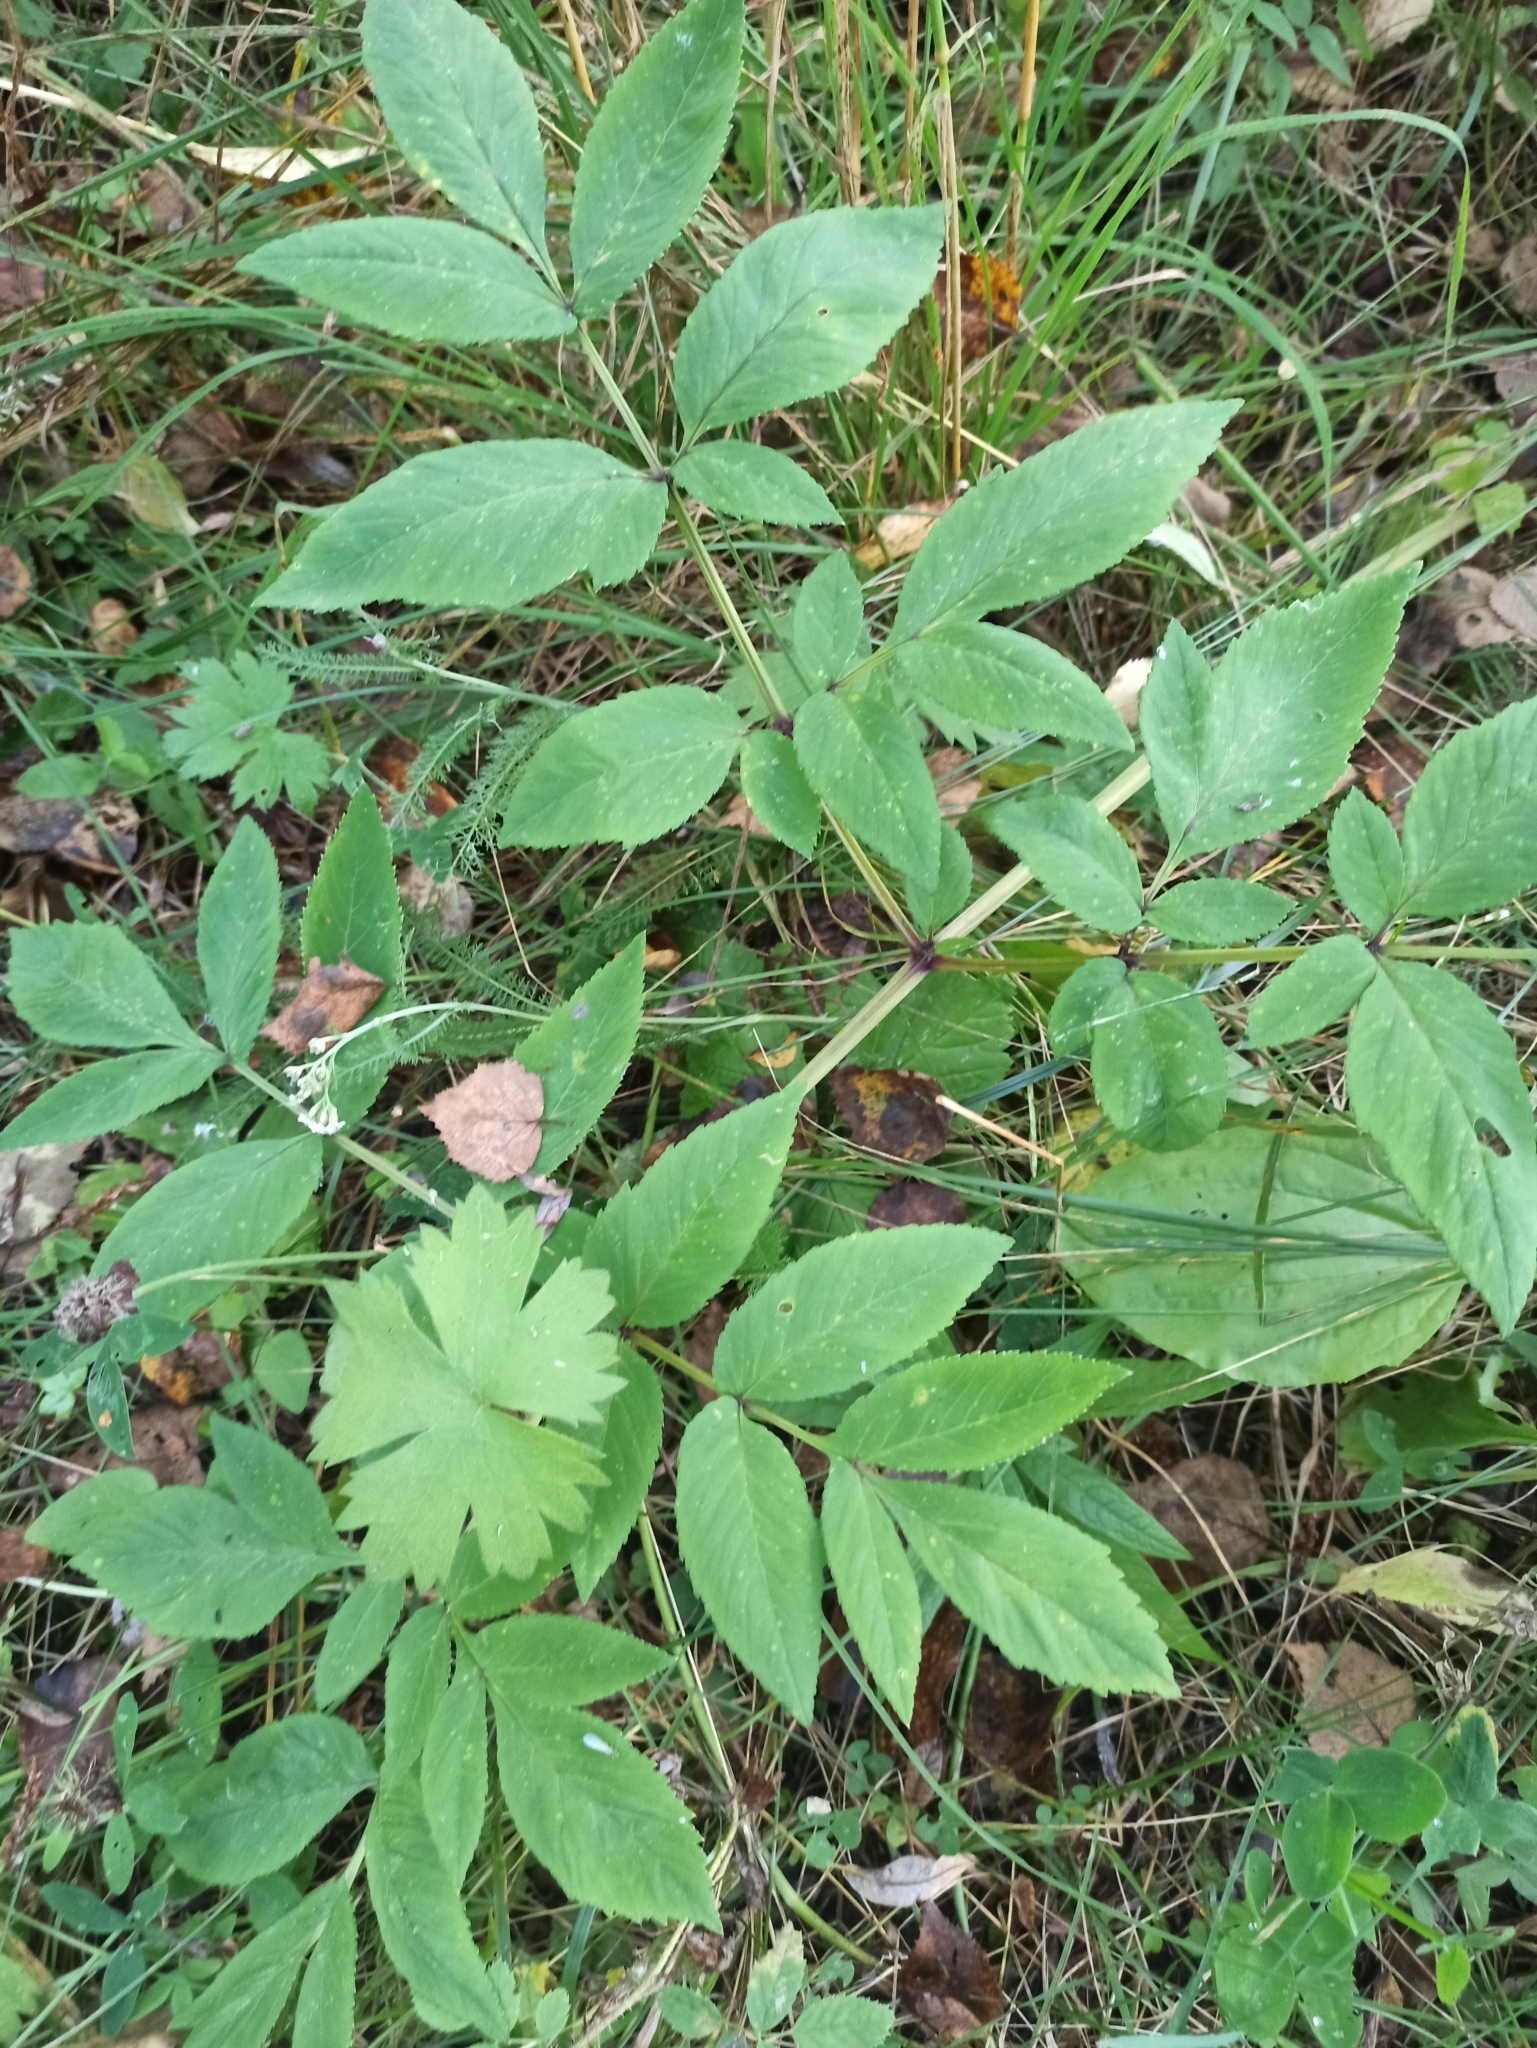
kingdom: Plantae
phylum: Tracheophyta
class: Magnoliopsida
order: Apiales
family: Apiaceae
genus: Angelica
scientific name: Angelica sylvestris
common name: Wild angelica
